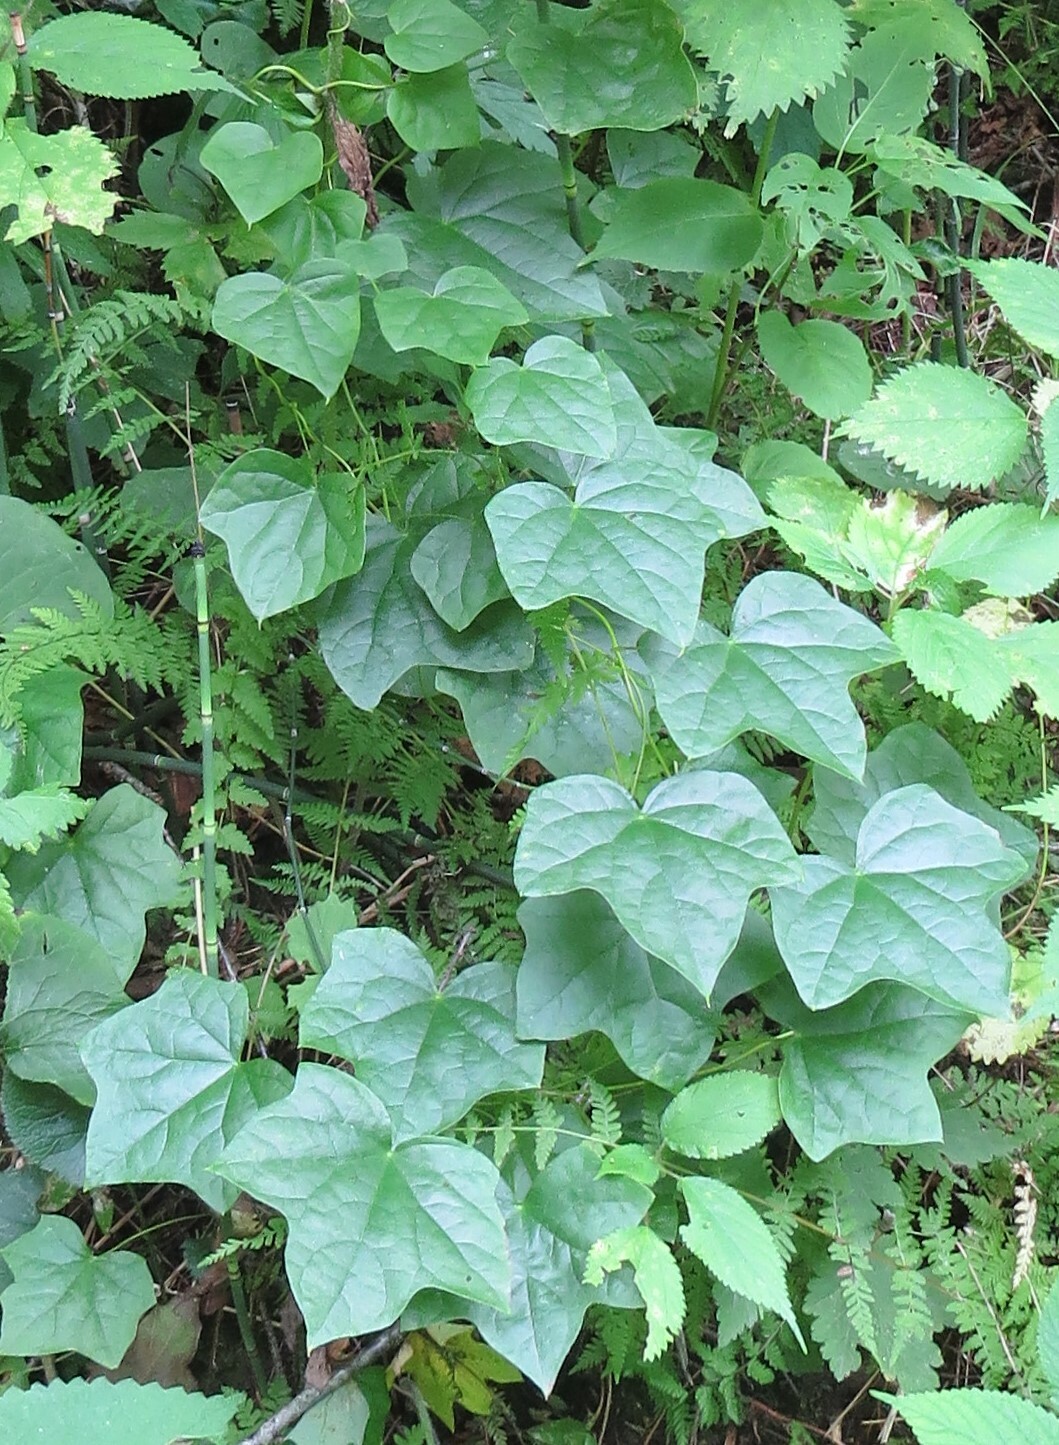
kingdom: Plantae
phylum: Tracheophyta
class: Magnoliopsida
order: Ranunculales
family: Menispermaceae
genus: Menispermum
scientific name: Menispermum canadense
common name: Moonseed
